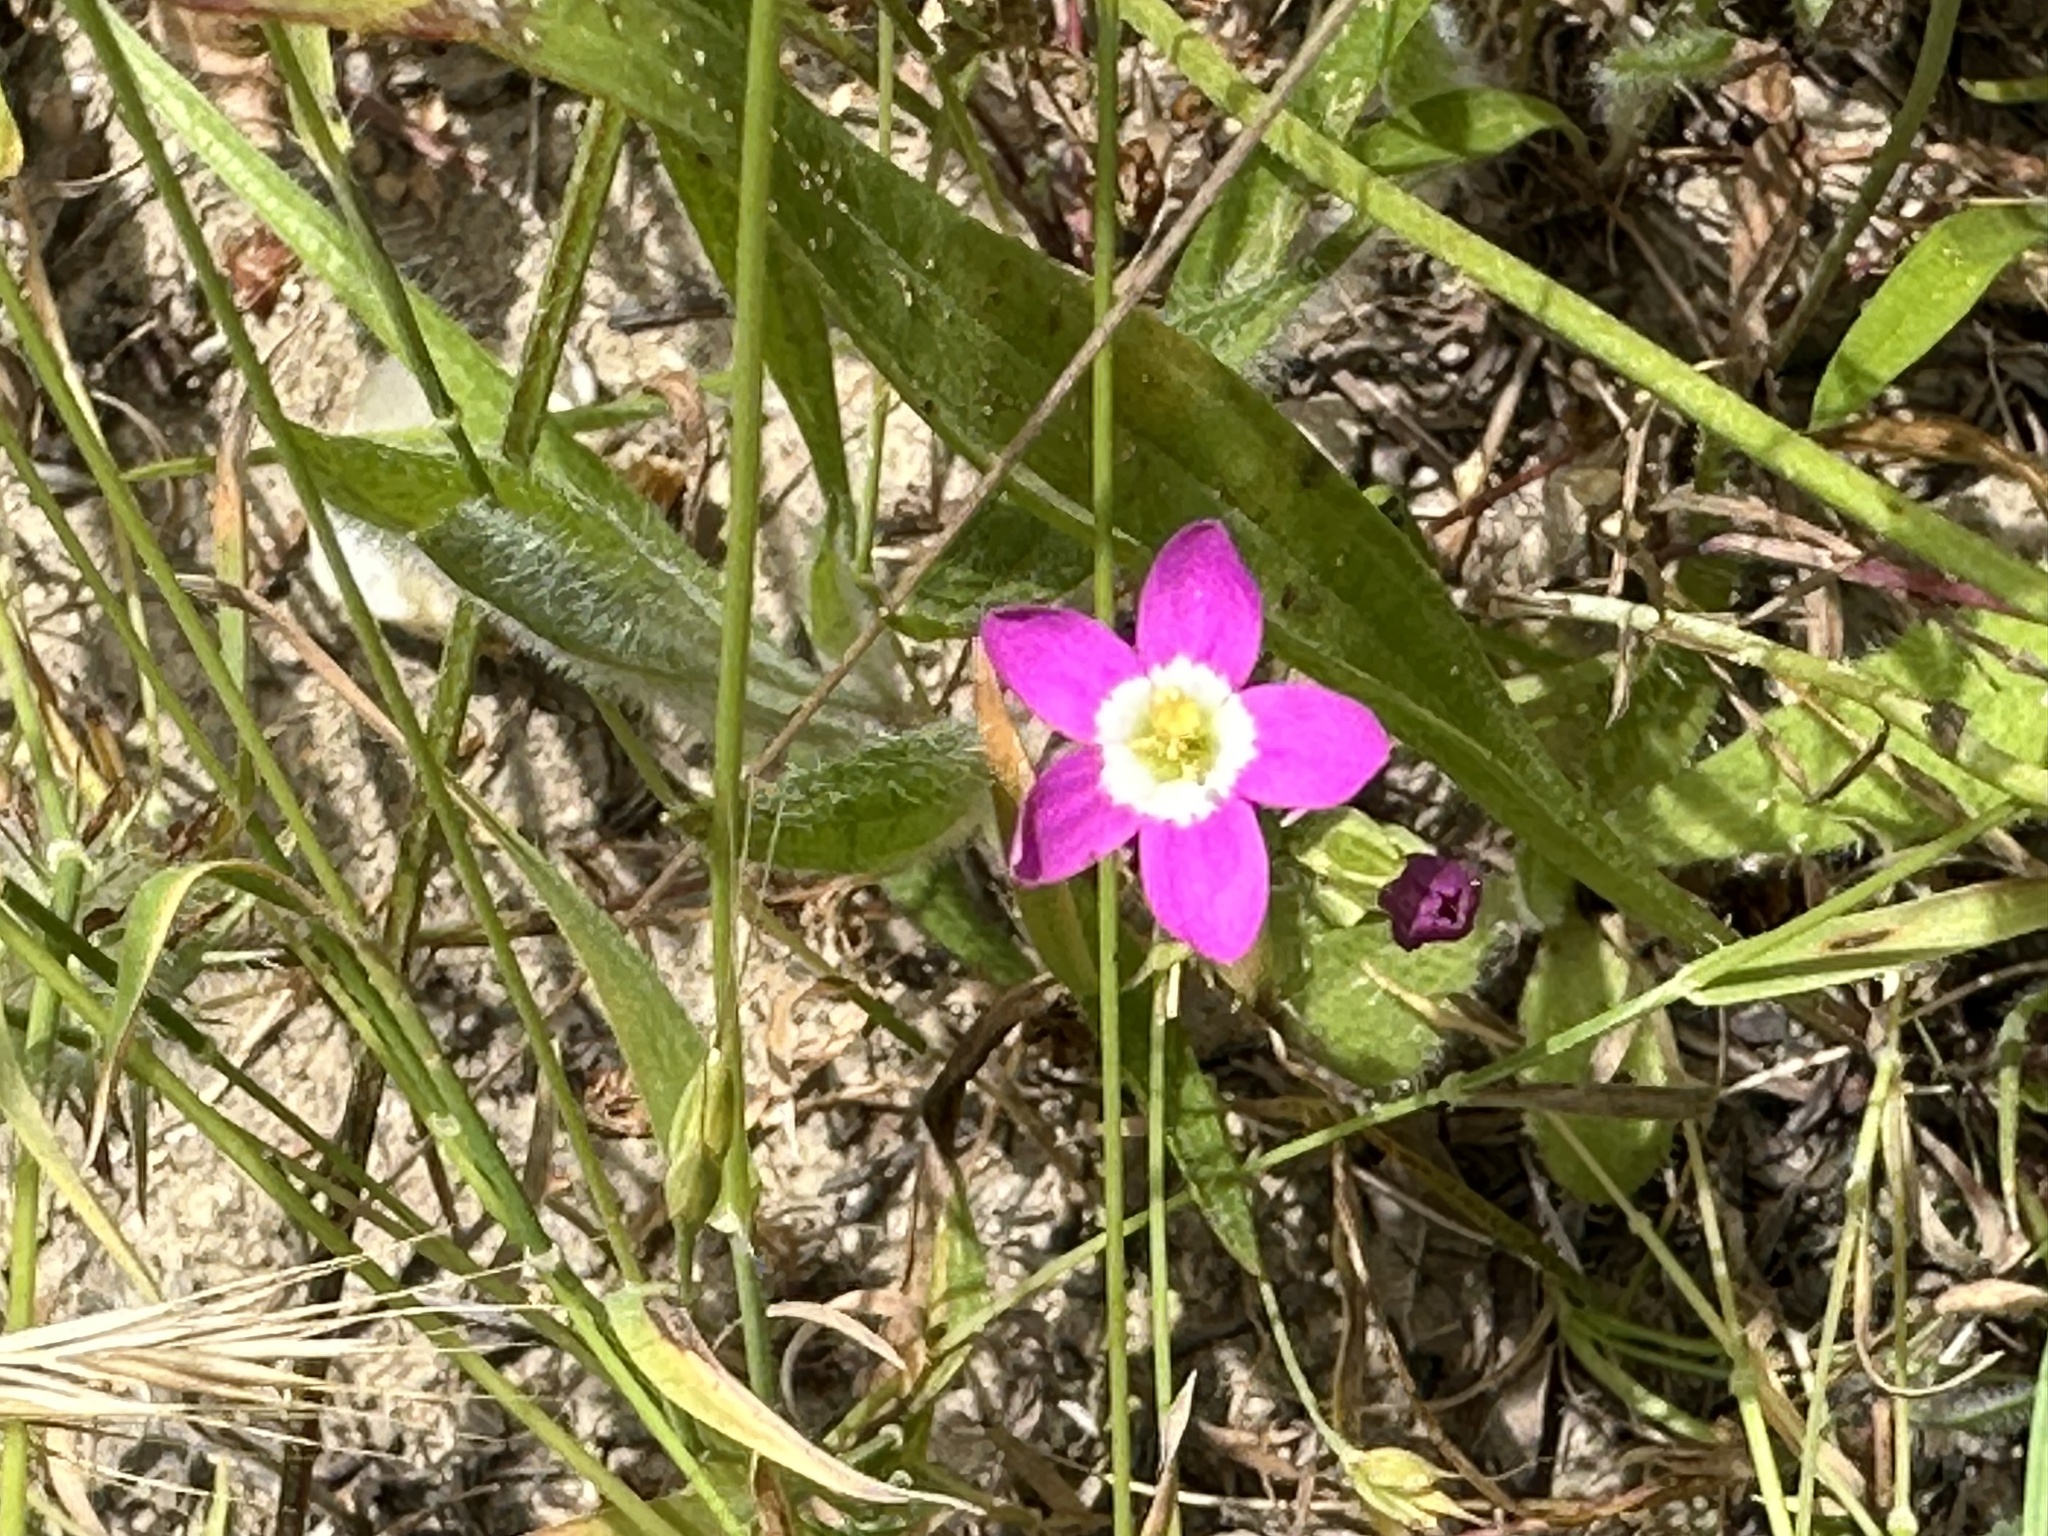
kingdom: Plantae
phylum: Tracheophyta
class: Magnoliopsida
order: Gentianales
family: Gentianaceae
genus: Zeltnera
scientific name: Zeltnera davyi
